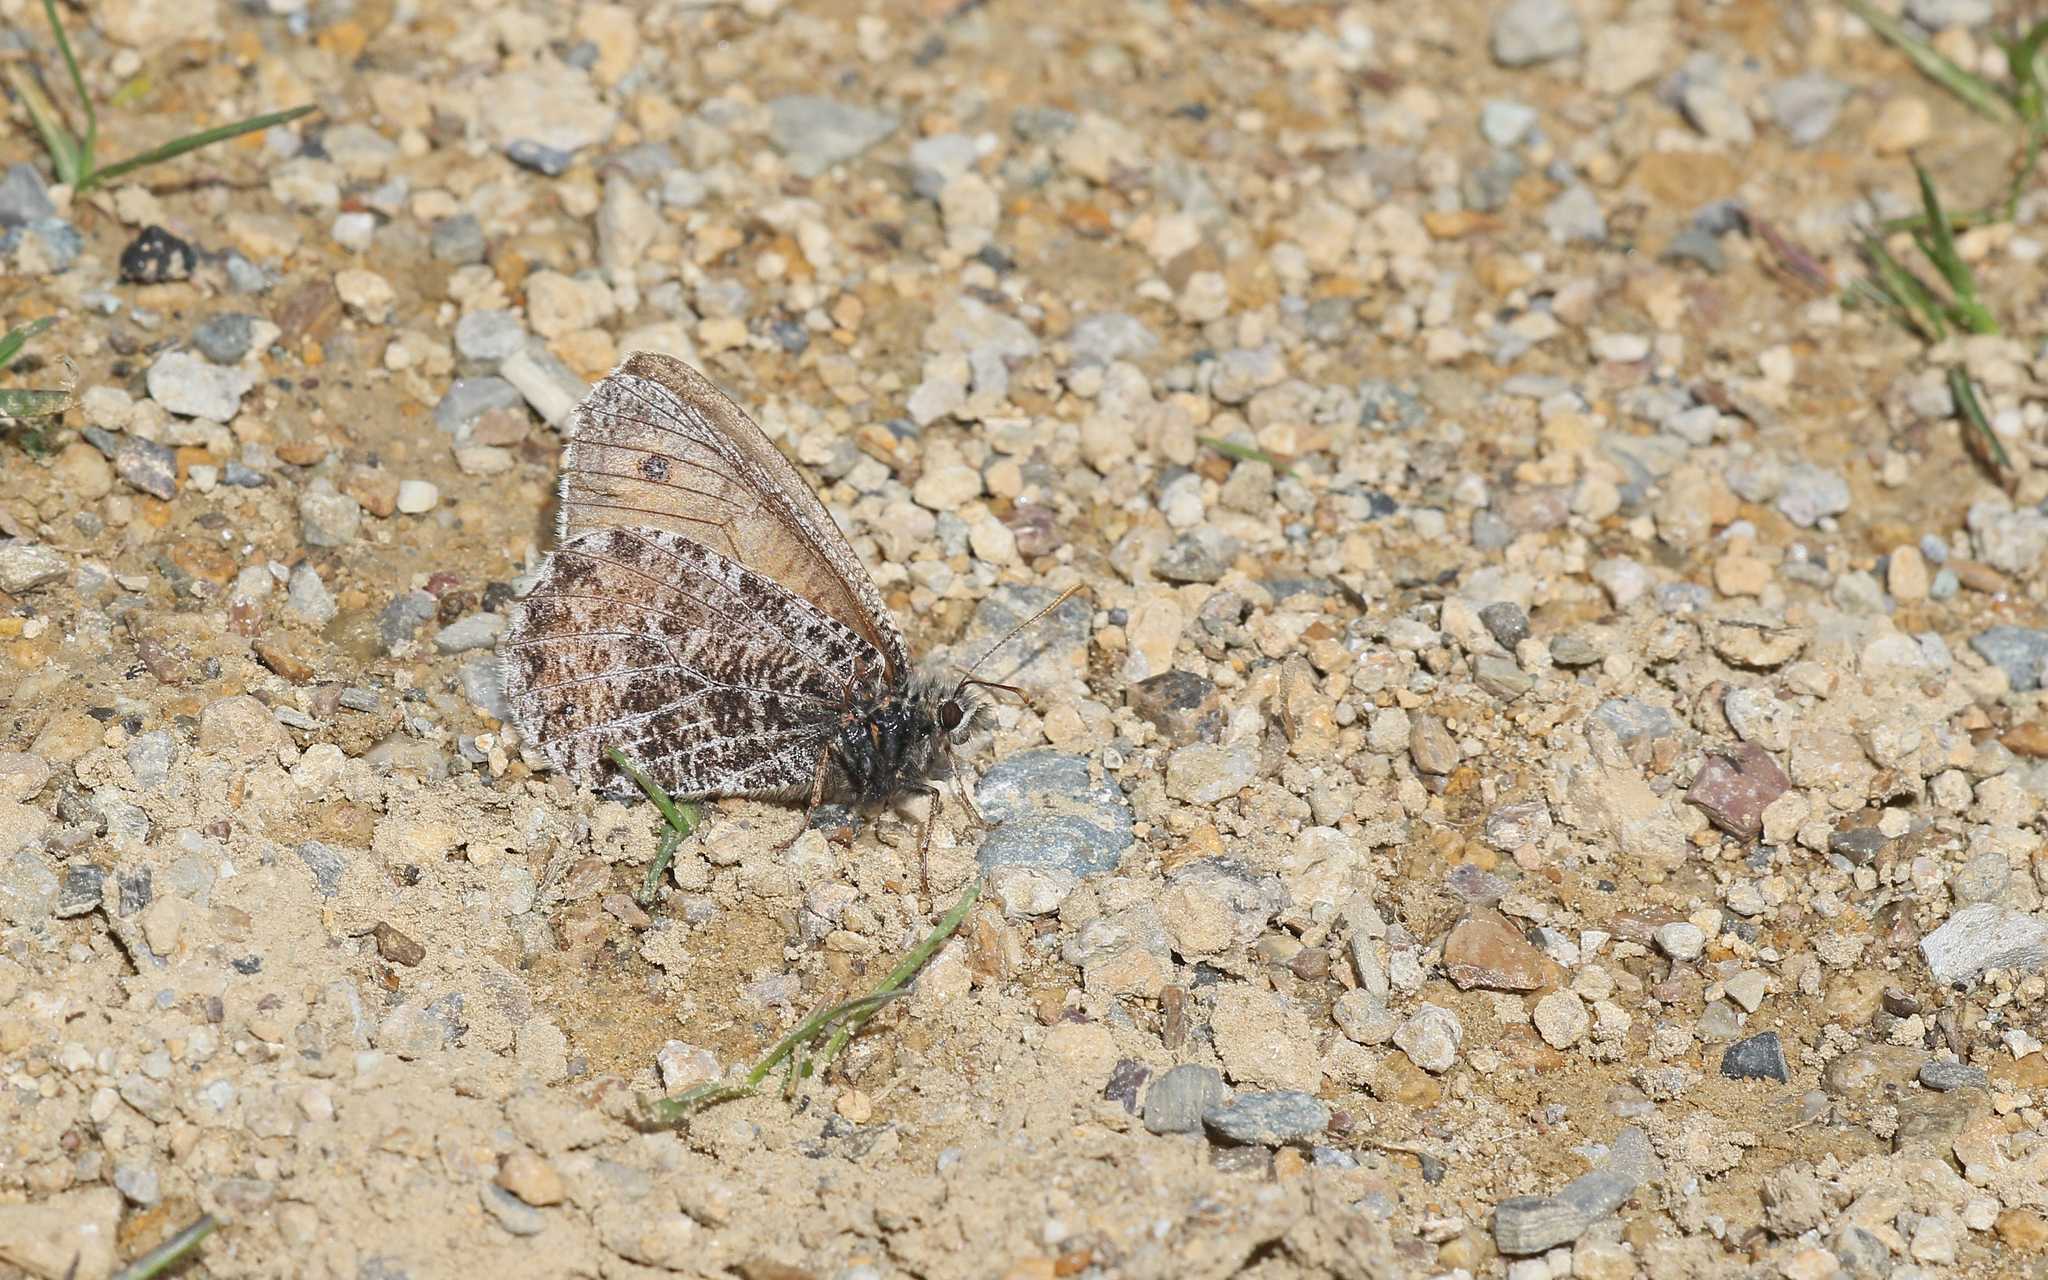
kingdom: Animalia
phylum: Arthropoda
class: Insecta
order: Lepidoptera
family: Nymphalidae
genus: Oeneis
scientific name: Oeneis aello
